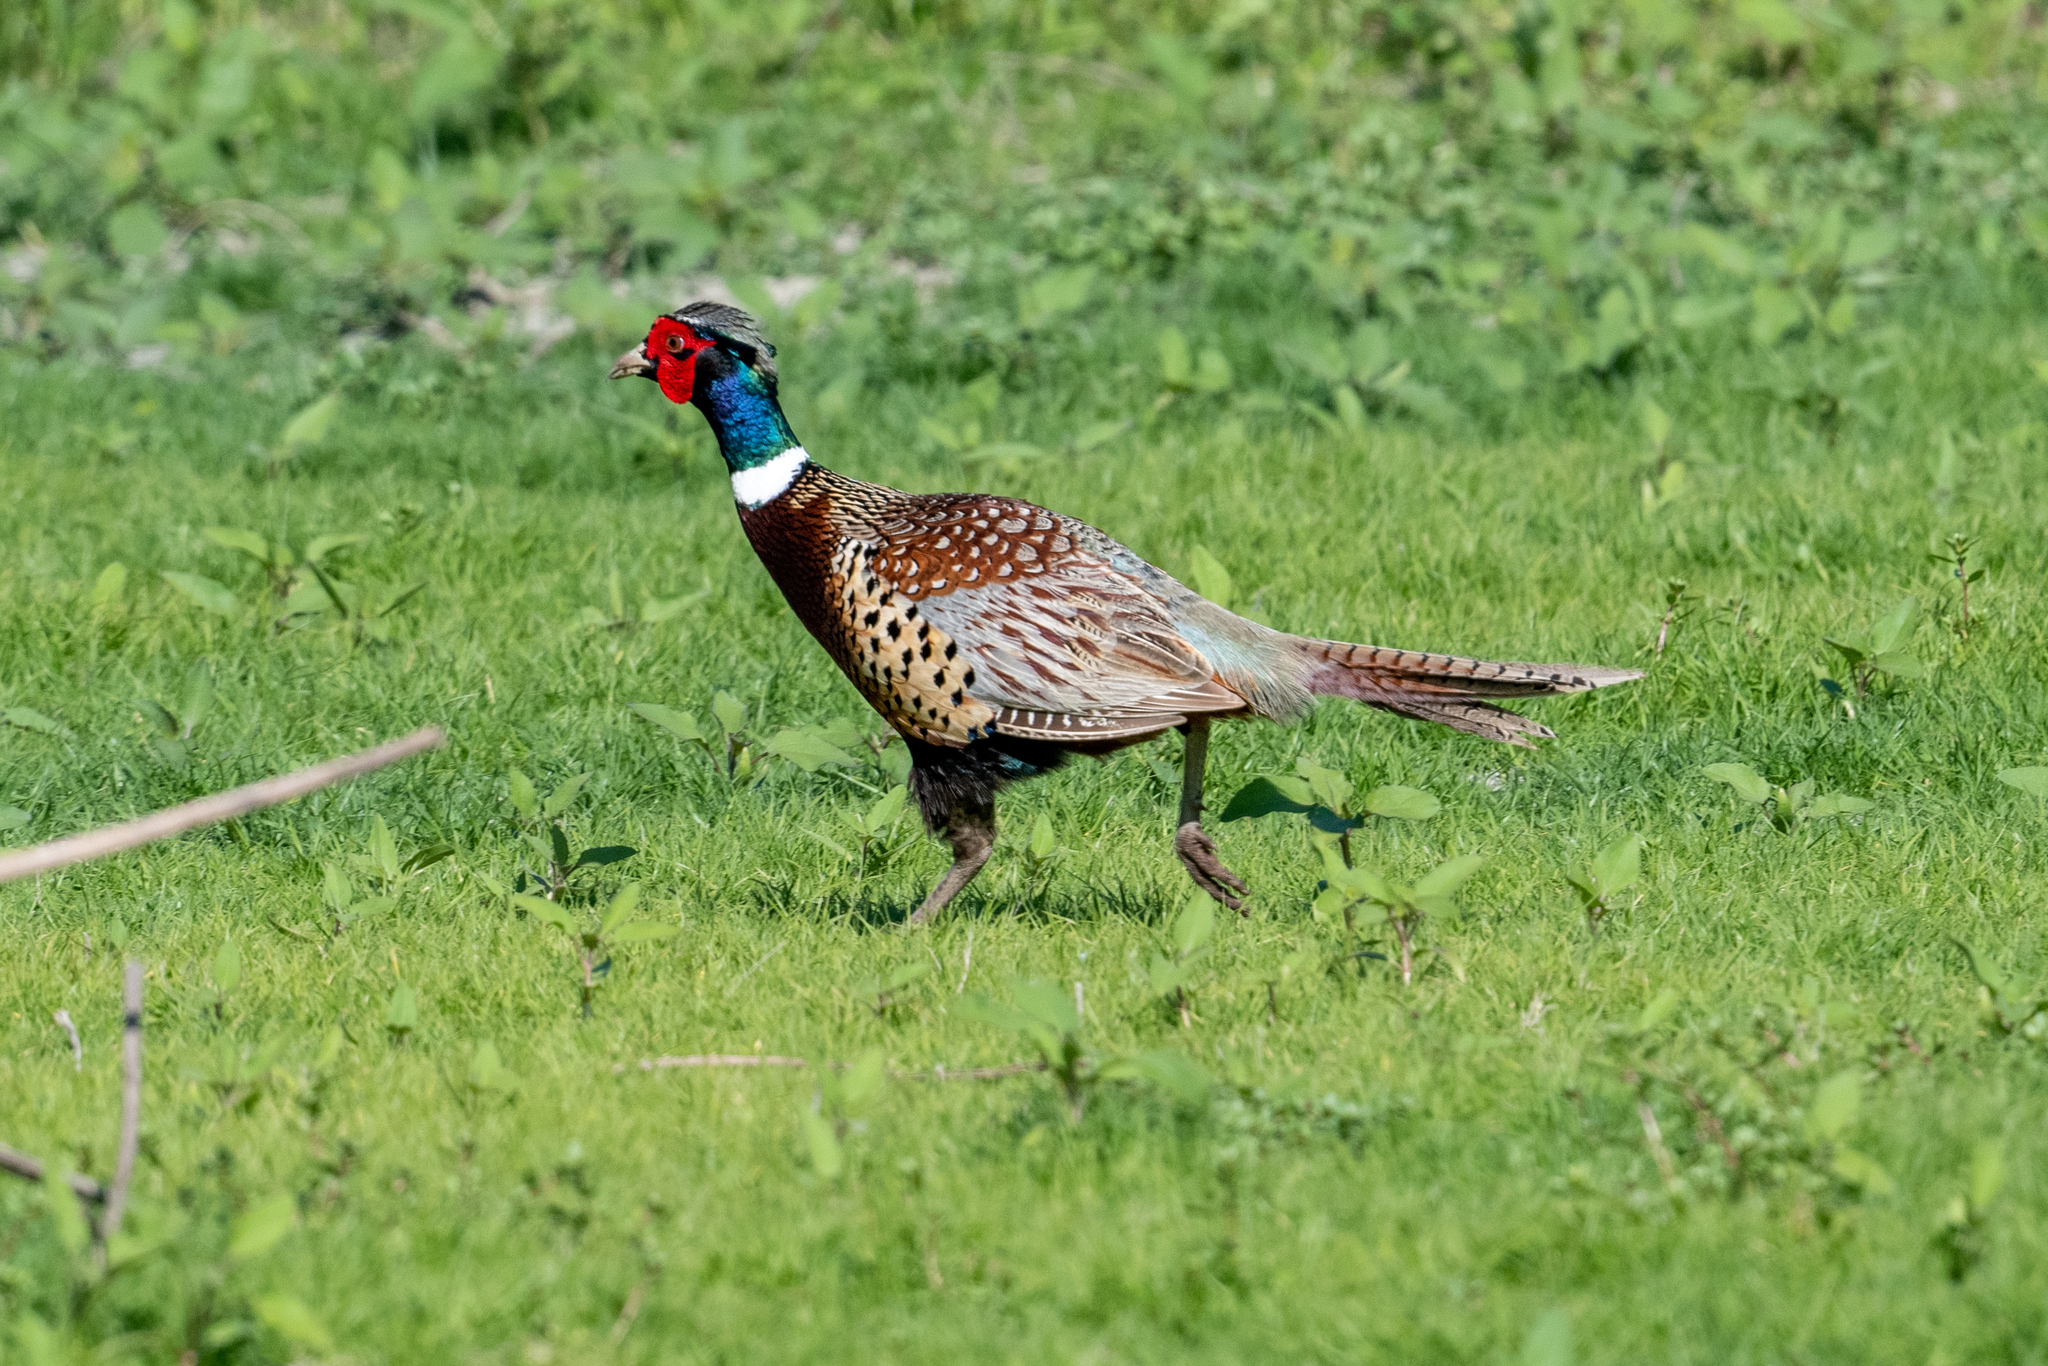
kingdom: Animalia
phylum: Chordata
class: Aves
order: Galliformes
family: Phasianidae
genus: Phasianus
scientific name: Phasianus colchicus
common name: Common pheasant
